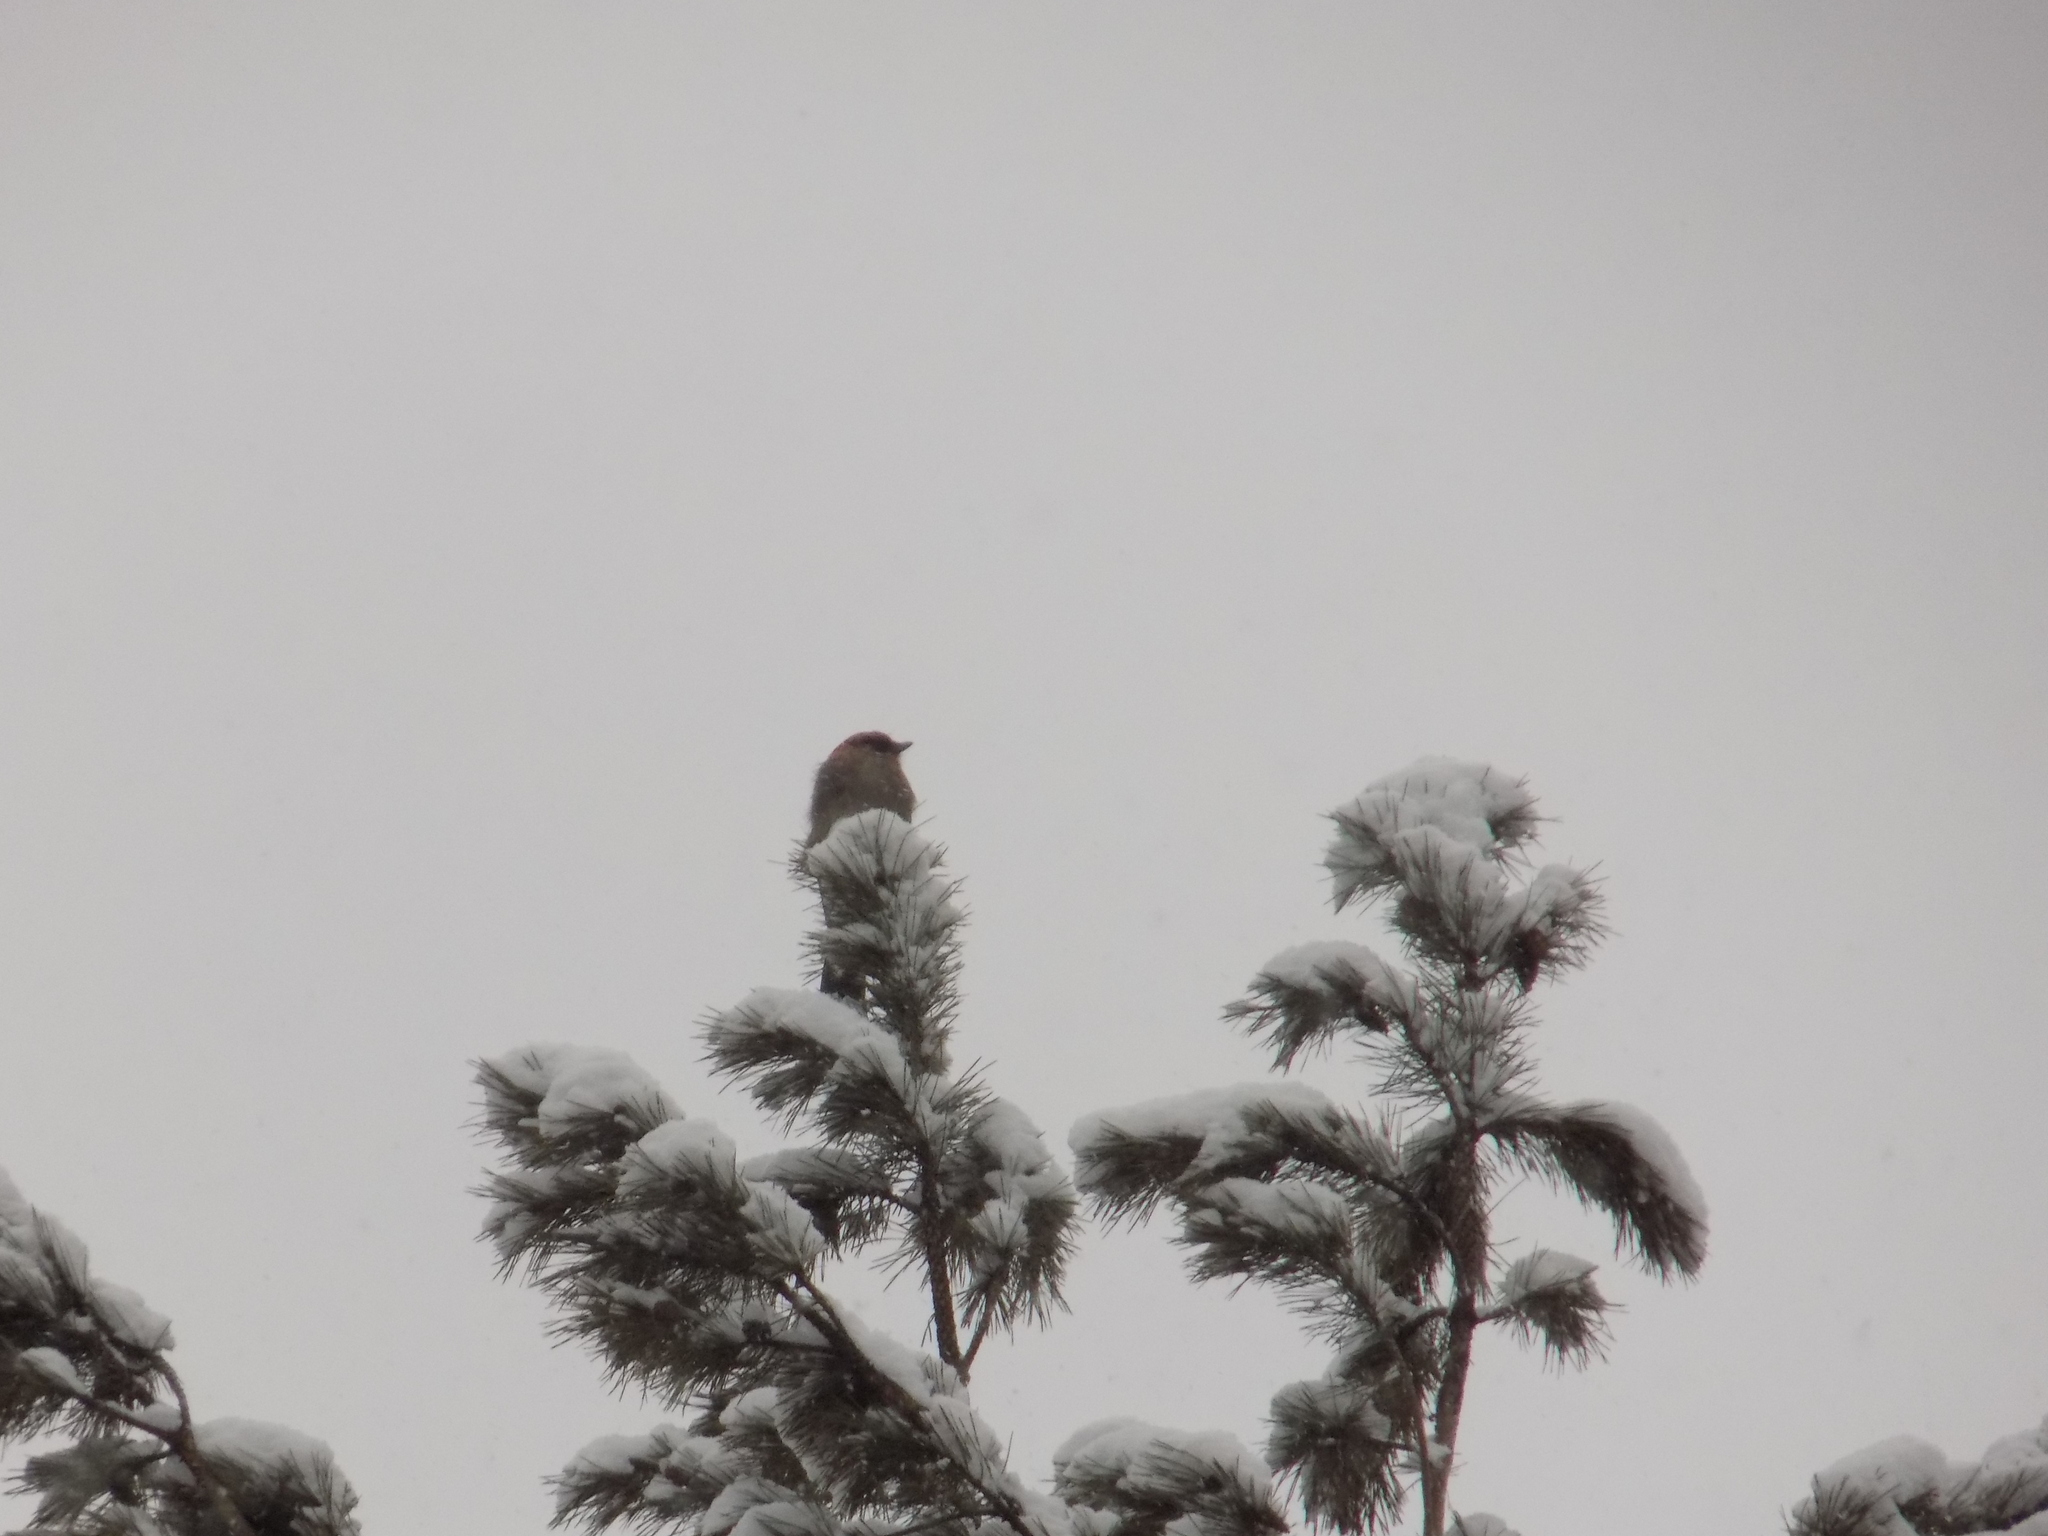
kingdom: Animalia
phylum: Chordata
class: Aves
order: Passeriformes
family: Corvidae
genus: Garrulus
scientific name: Garrulus glandarius
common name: Eurasian jay
